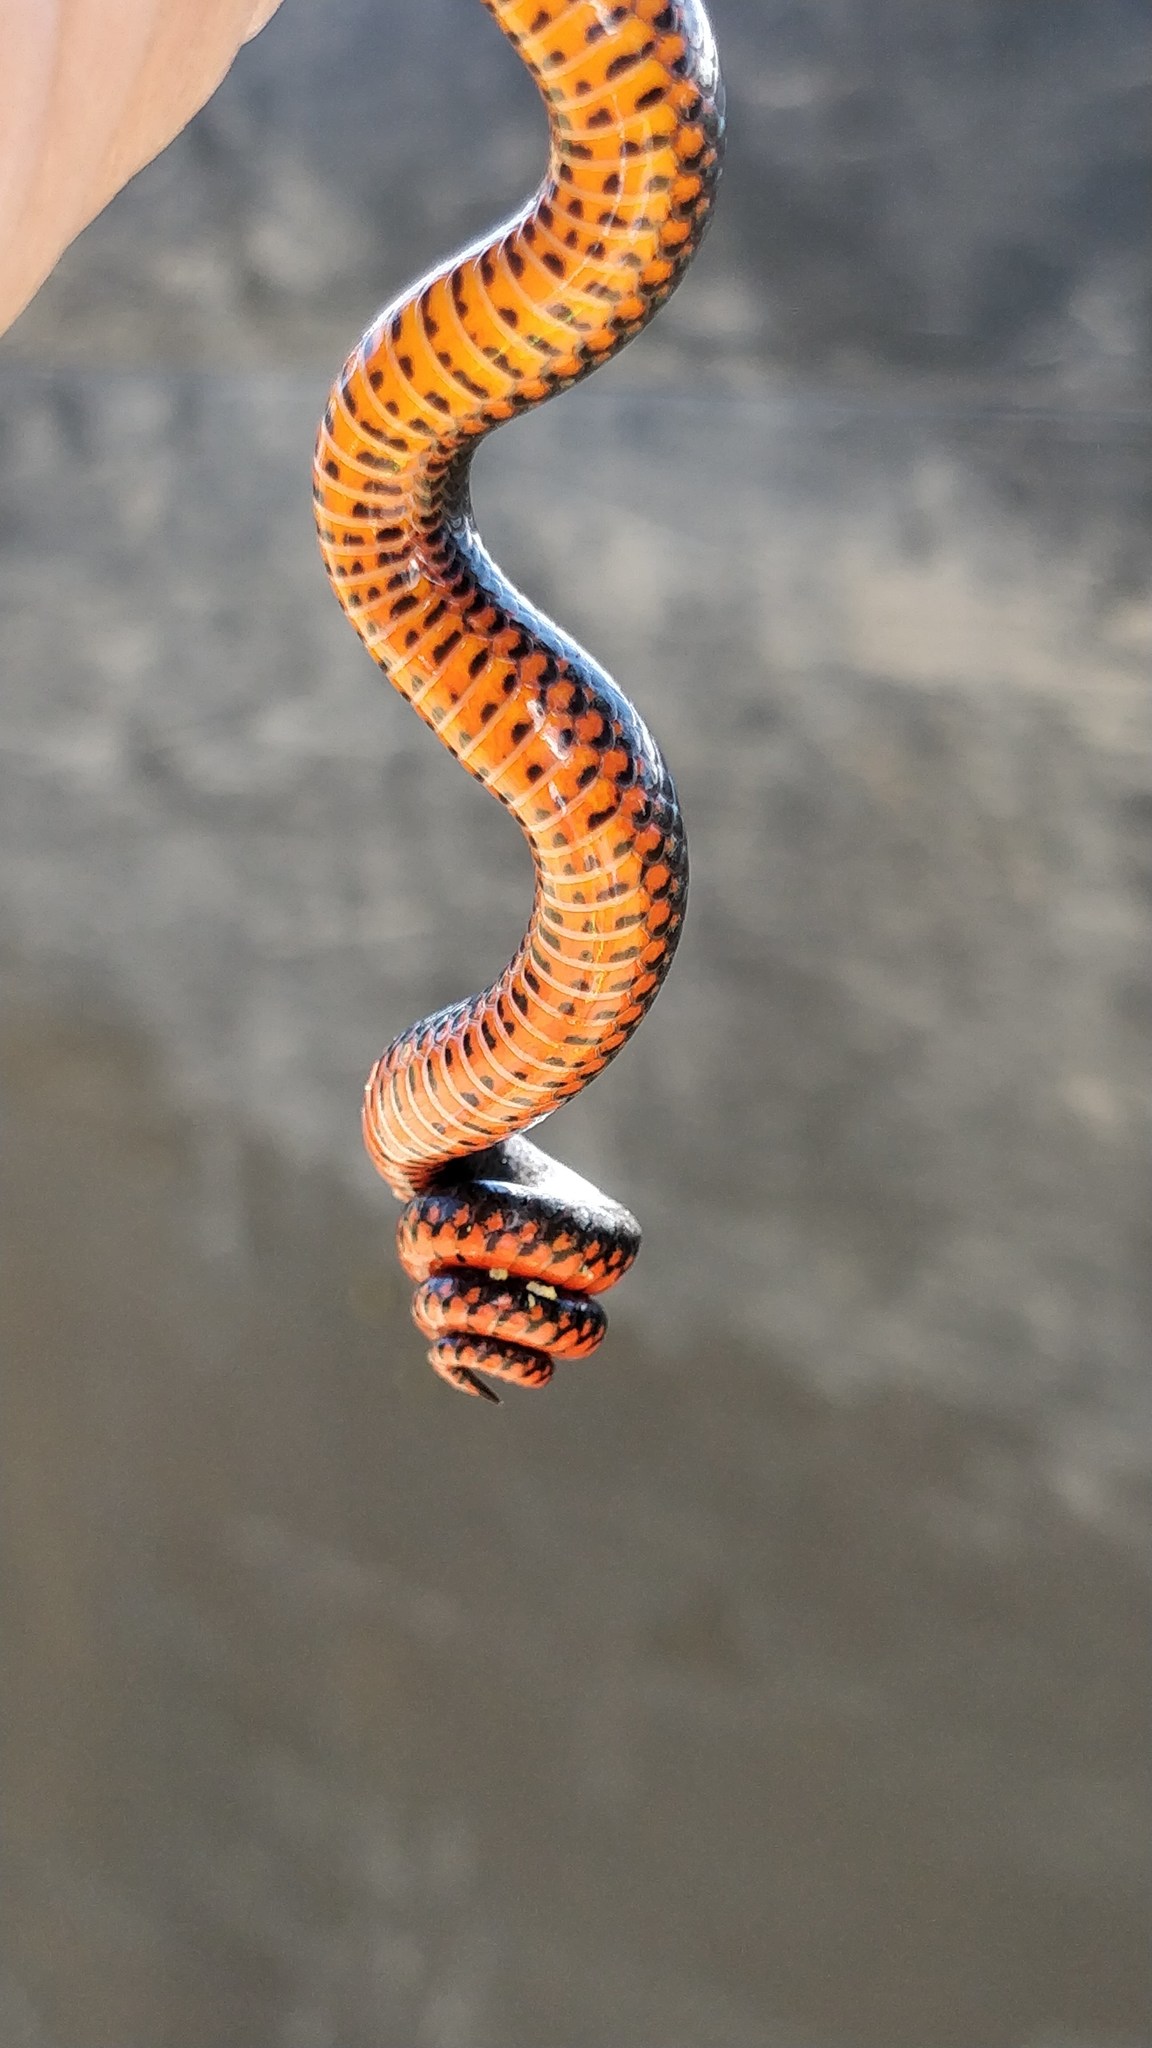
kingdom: Animalia
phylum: Chordata
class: Squamata
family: Colubridae
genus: Diadophis
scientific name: Diadophis punctatus
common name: Ringneck snake
